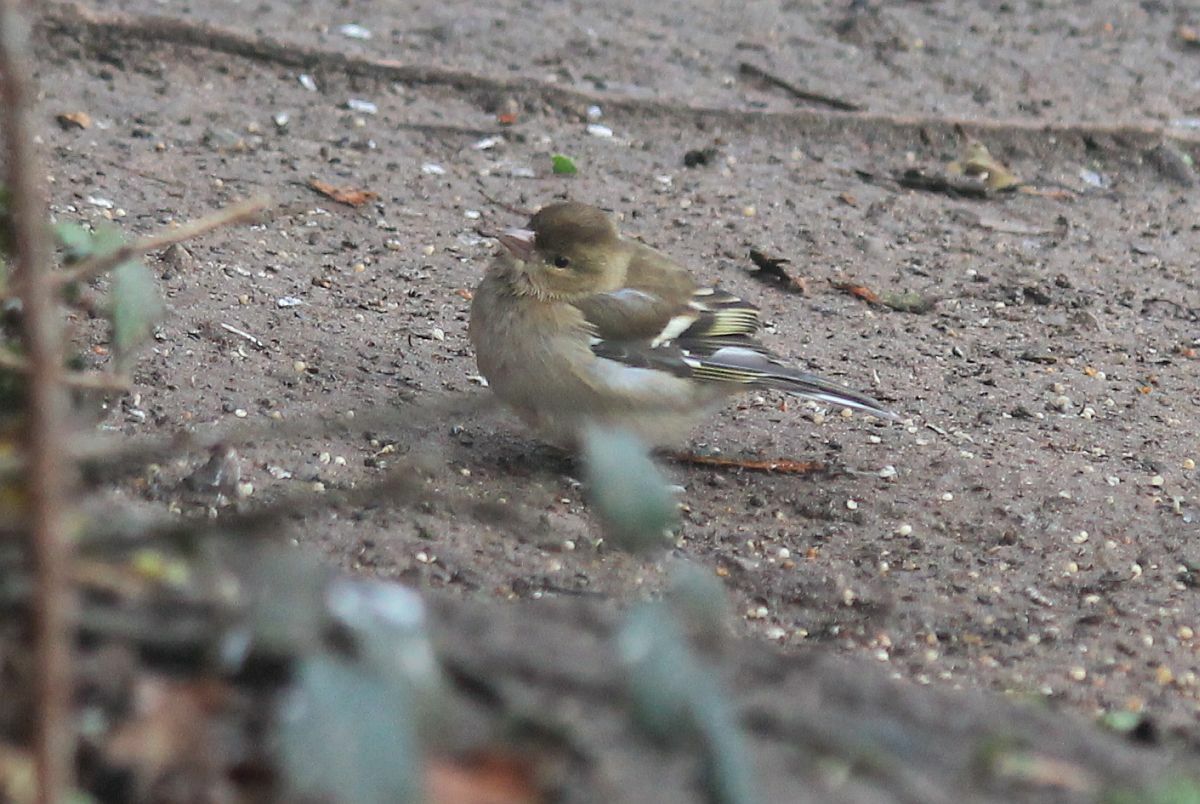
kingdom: Animalia
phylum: Chordata
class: Aves
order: Passeriformes
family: Fringillidae
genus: Fringilla
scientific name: Fringilla coelebs
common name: Common chaffinch
